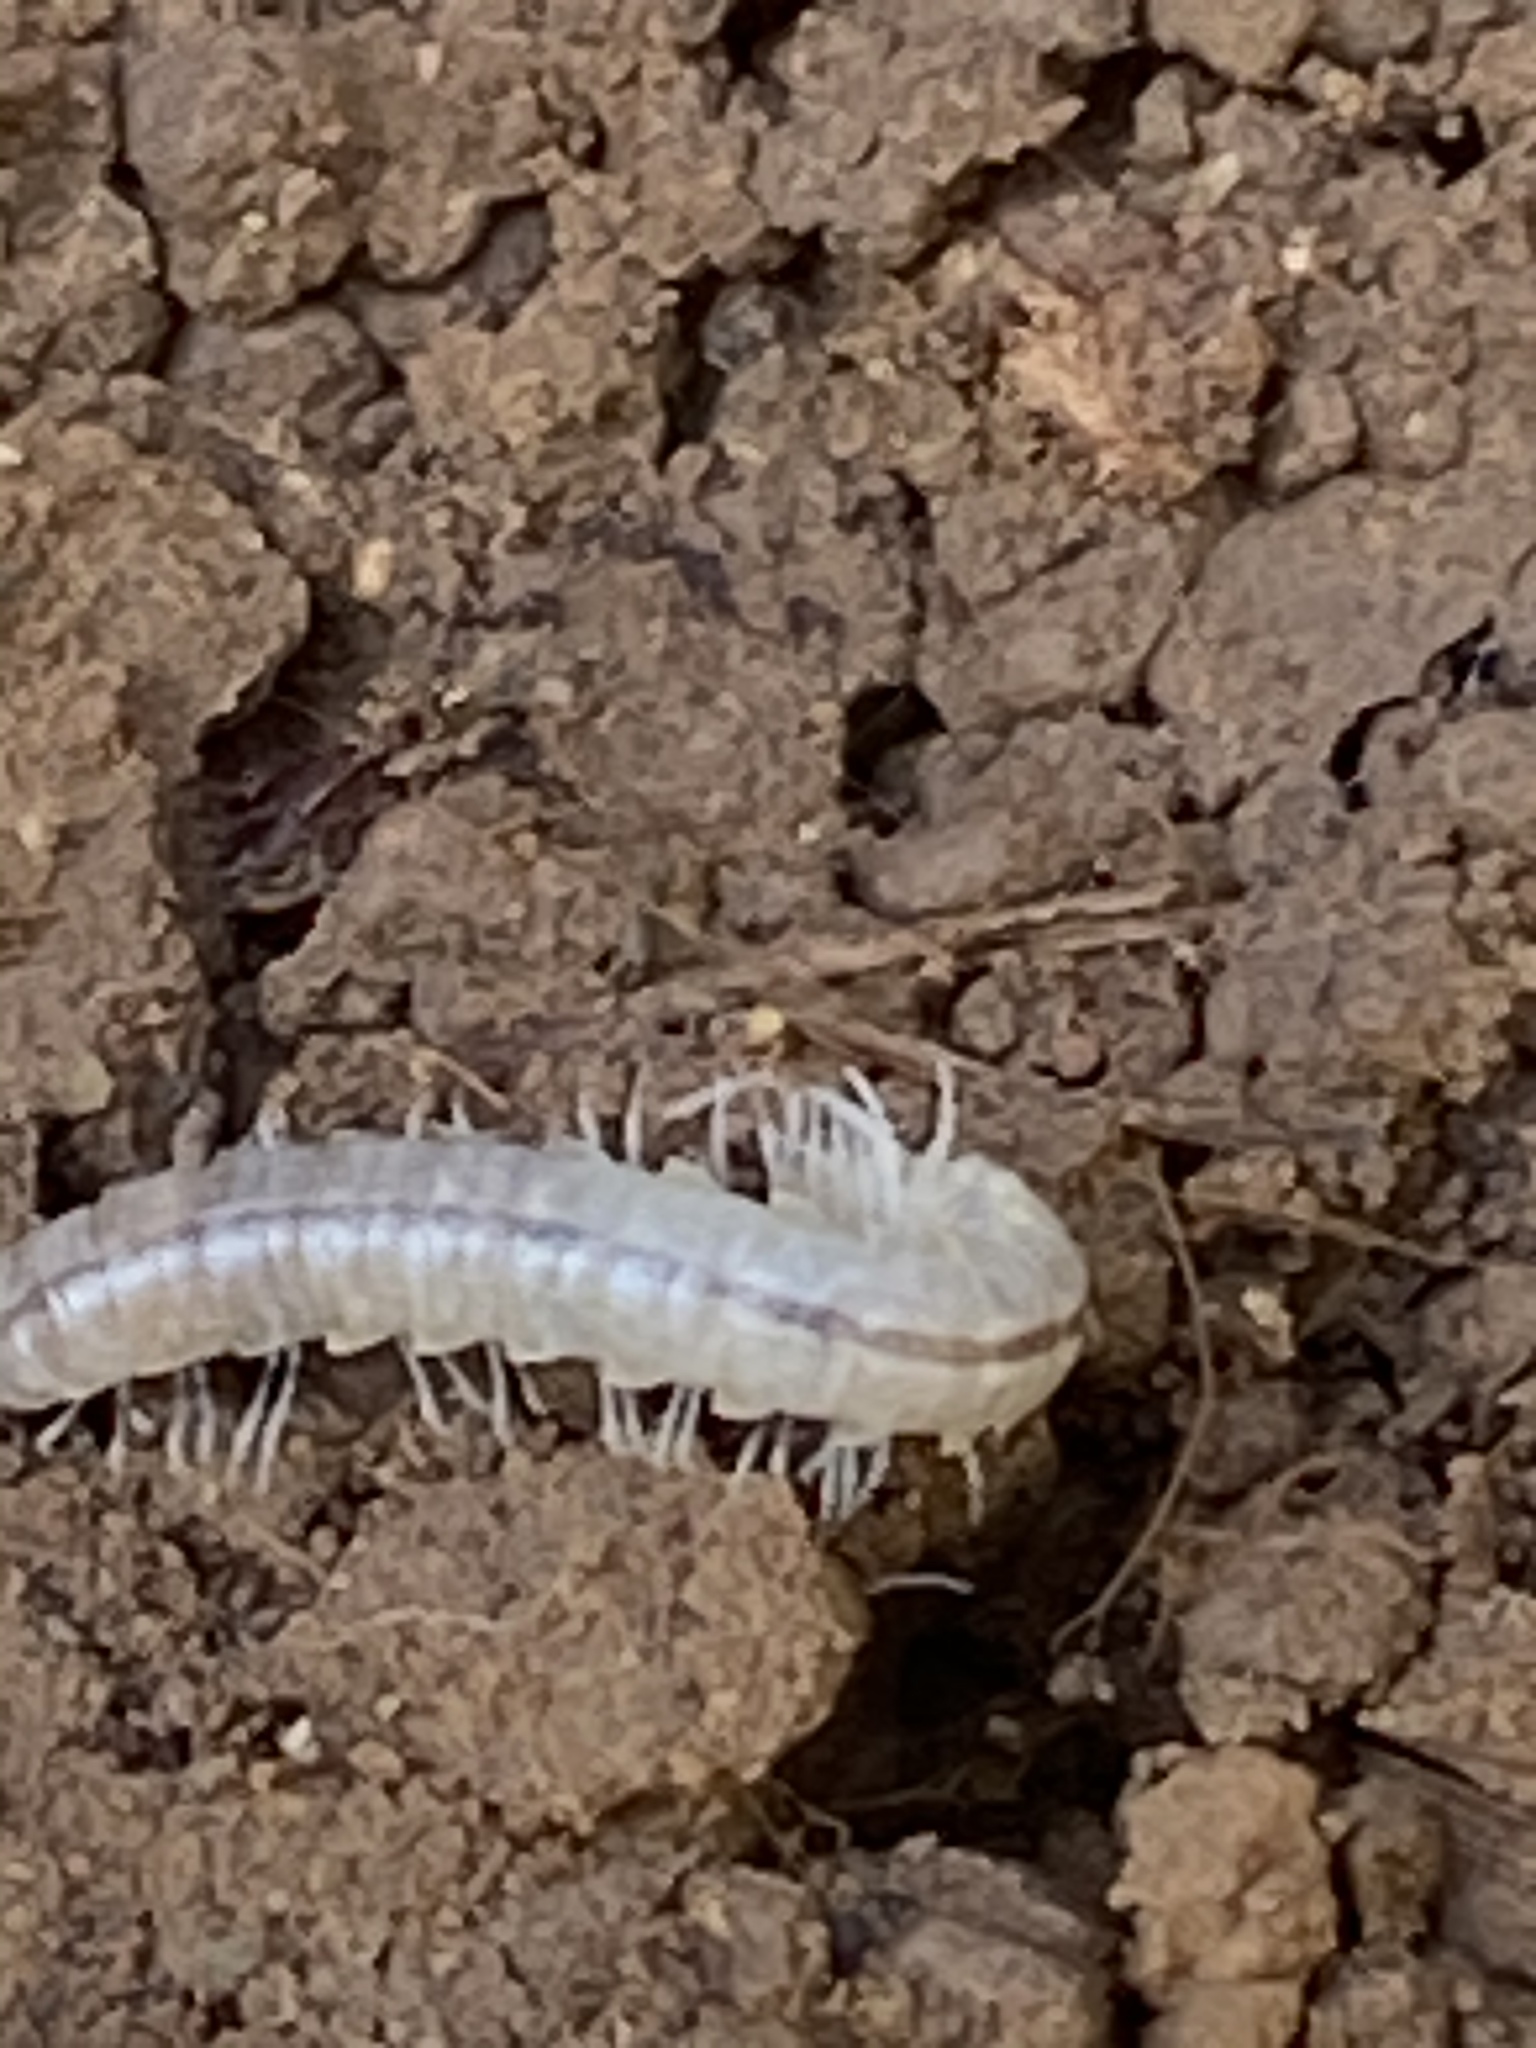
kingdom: Animalia
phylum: Arthropoda
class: Diplopoda
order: Polydesmida
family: Xystodesmidae
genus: Xystocheir
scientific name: Xystocheir dissecta
